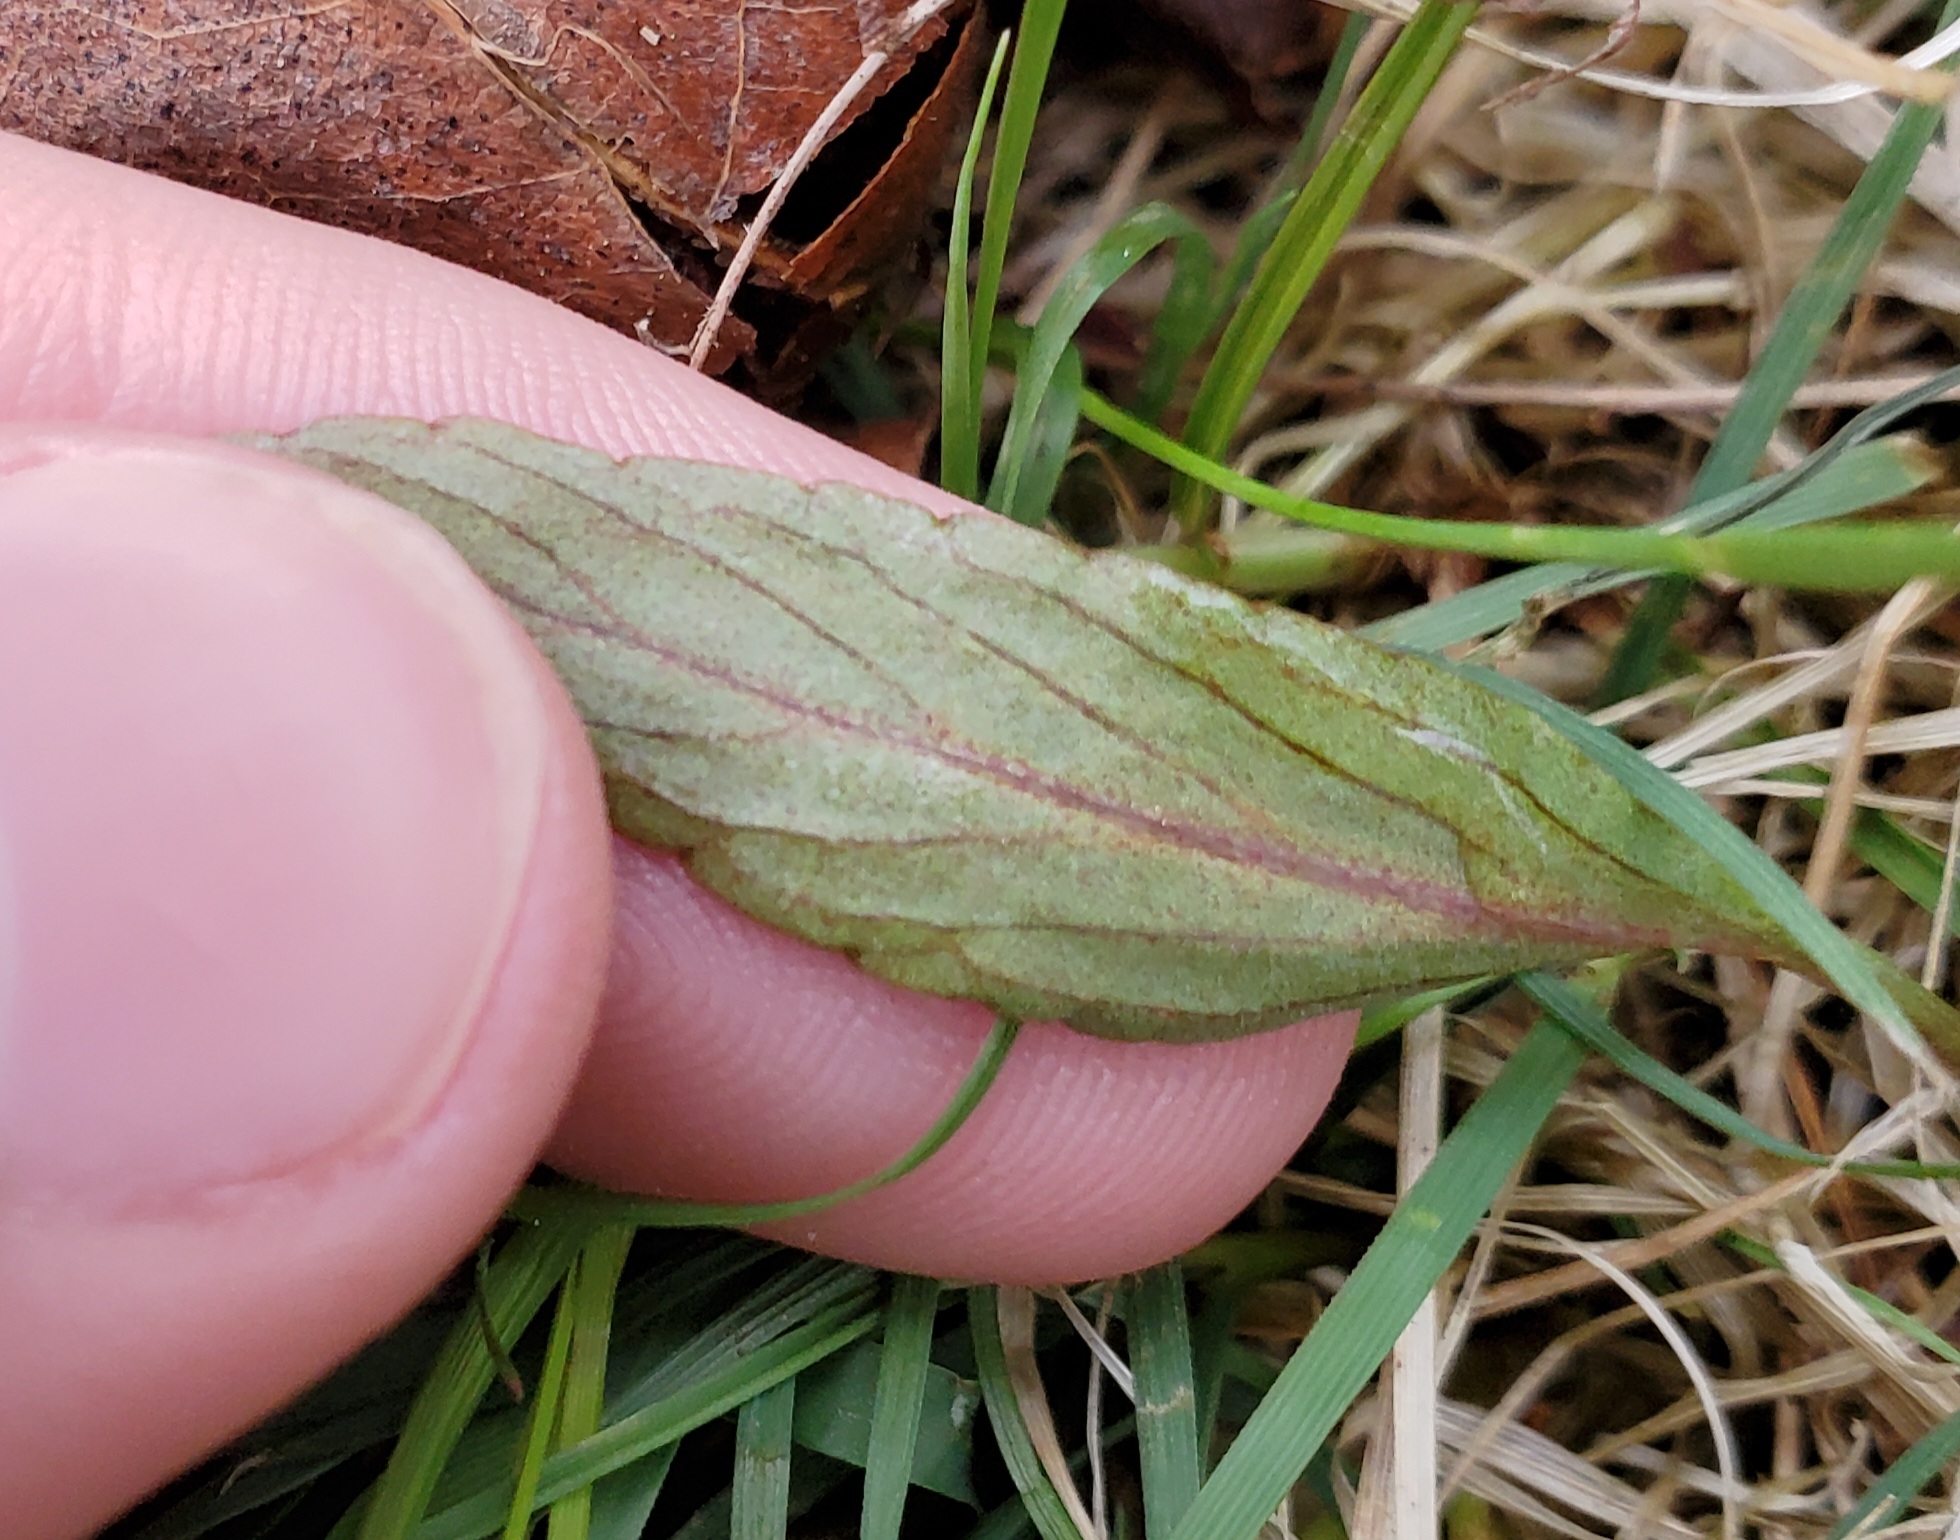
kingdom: Plantae
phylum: Tracheophyta
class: Magnoliopsida
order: Malpighiales
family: Violaceae
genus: Viola
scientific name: Viola lanceolata
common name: Bog white violet
